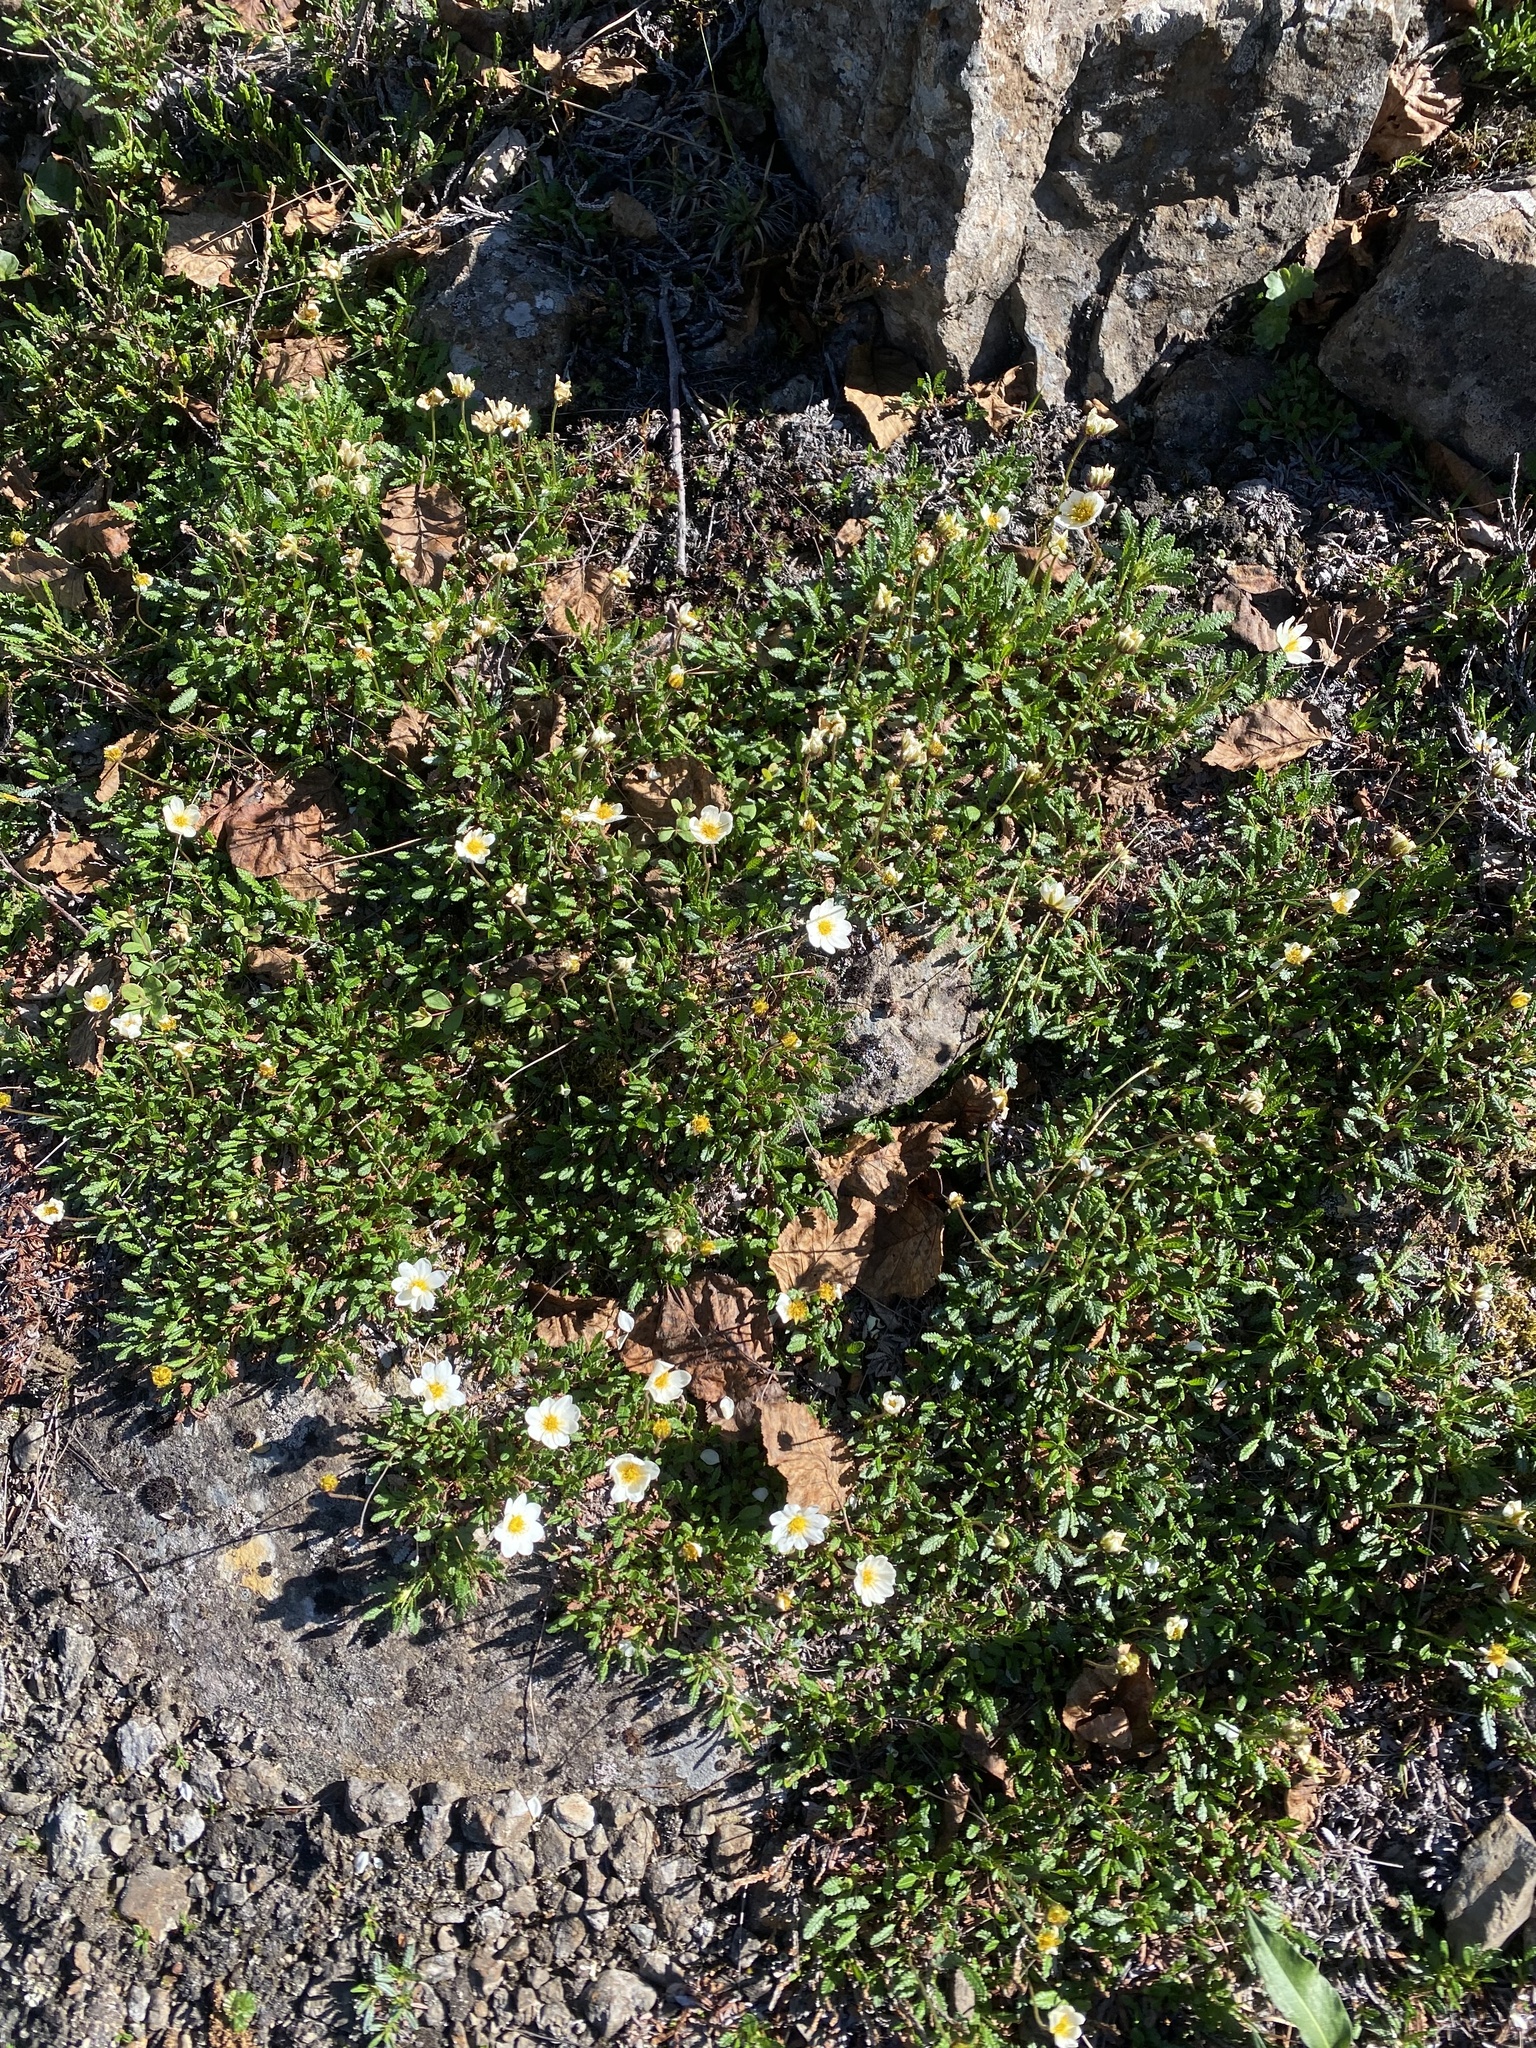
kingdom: Plantae
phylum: Tracheophyta
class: Magnoliopsida
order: Rosales
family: Rosaceae
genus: Dryas
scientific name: Dryas octopetala
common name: Eight-petal mountain-avens
